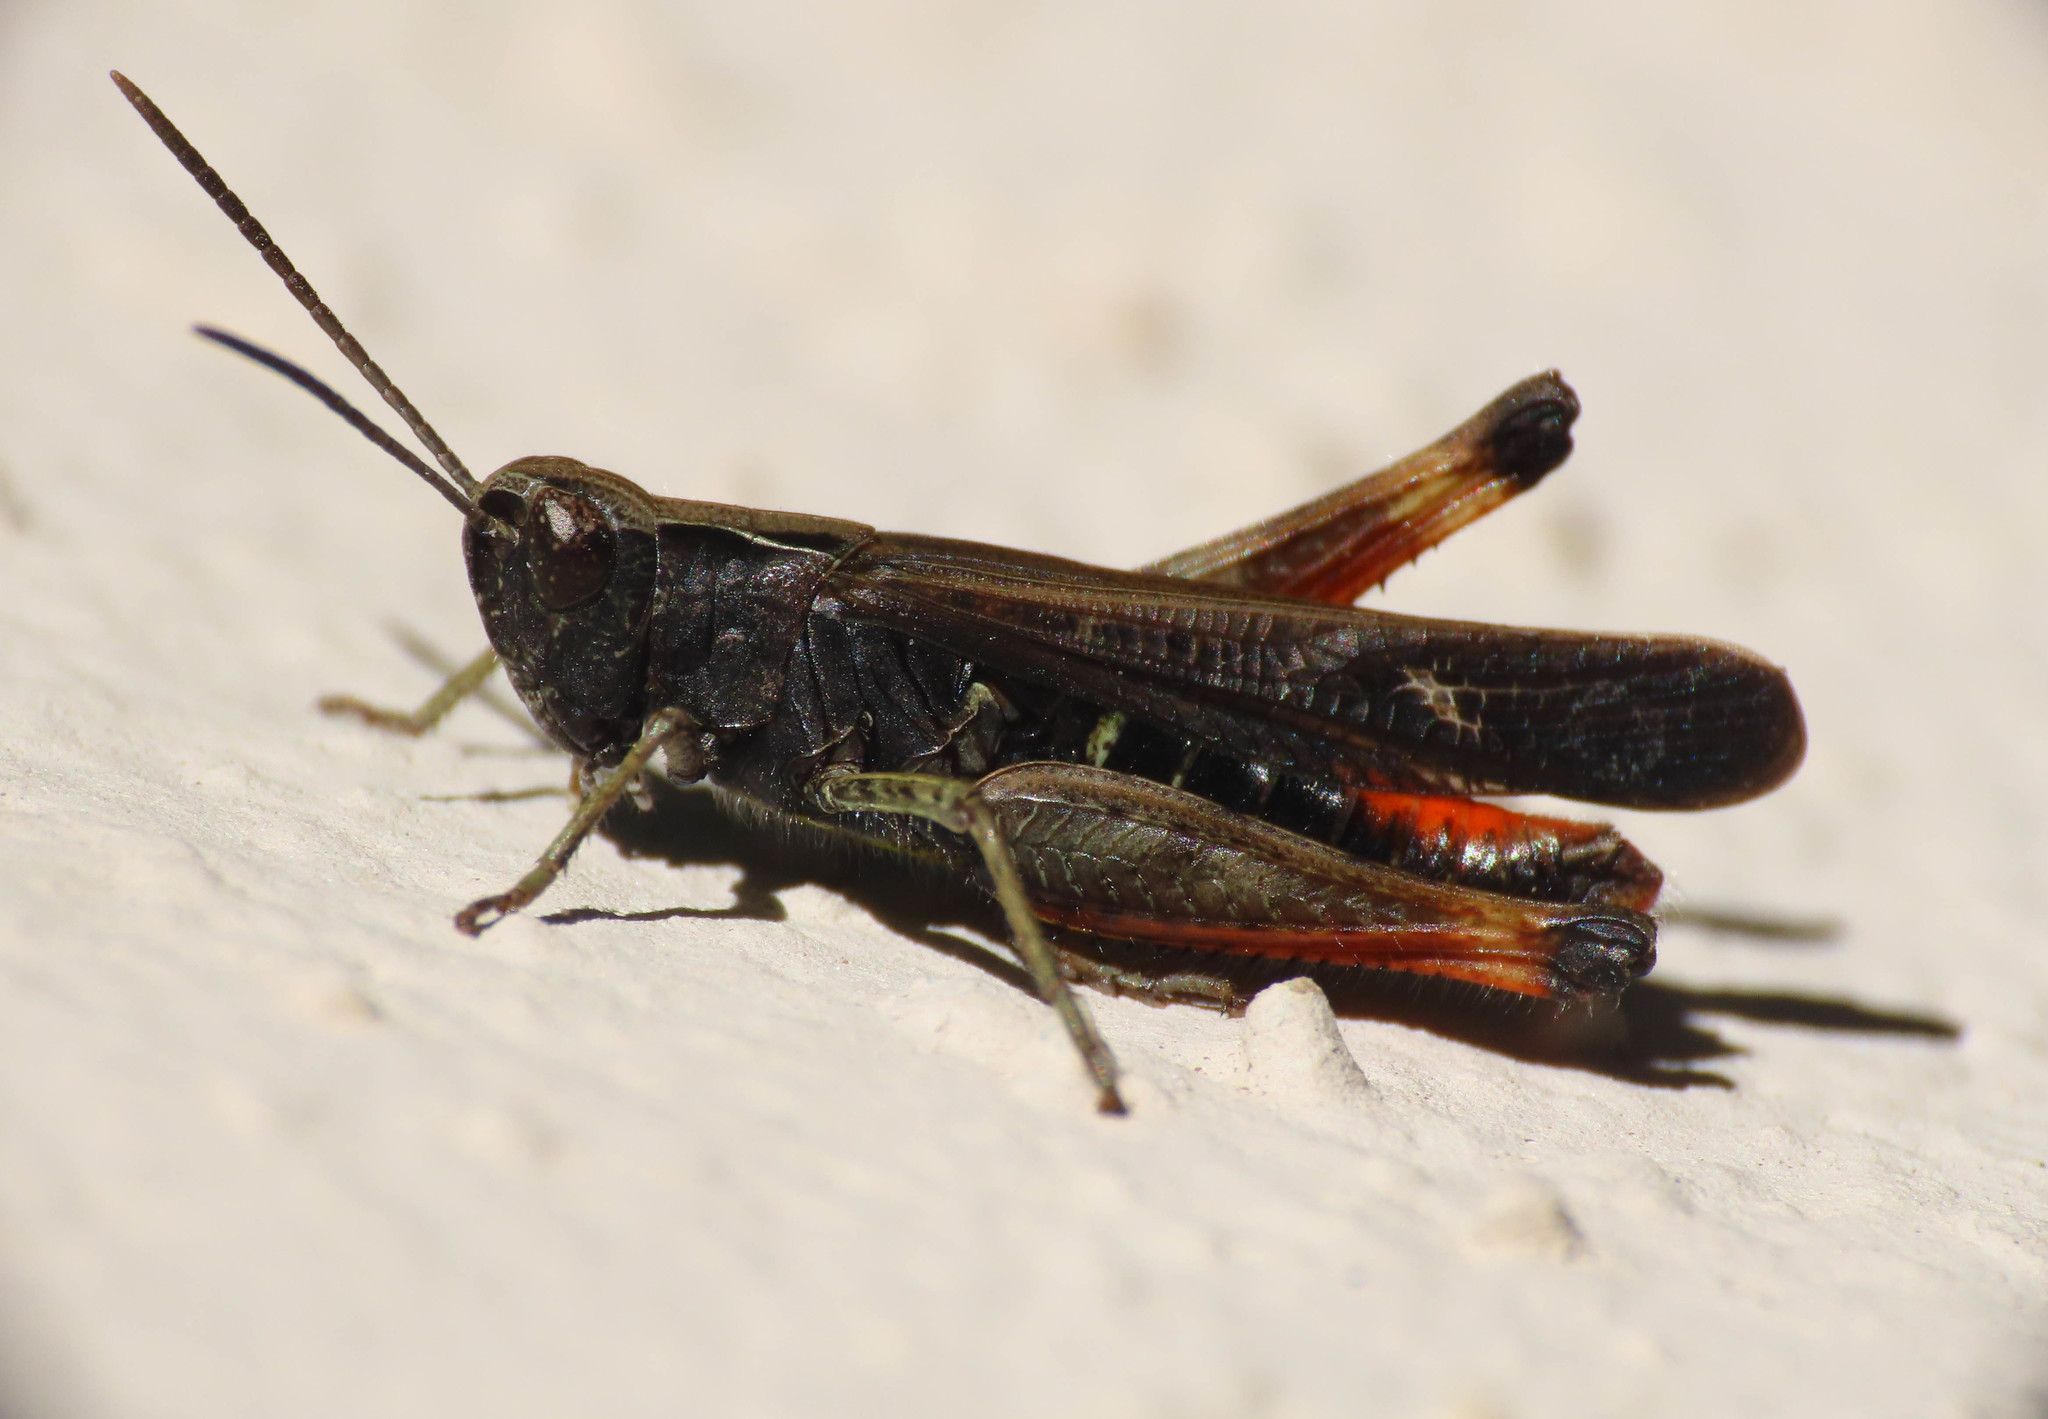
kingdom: Animalia
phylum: Arthropoda
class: Insecta
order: Orthoptera
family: Acrididae
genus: Omocestus
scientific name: Omocestus rufipes
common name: Woodland grasshopper
